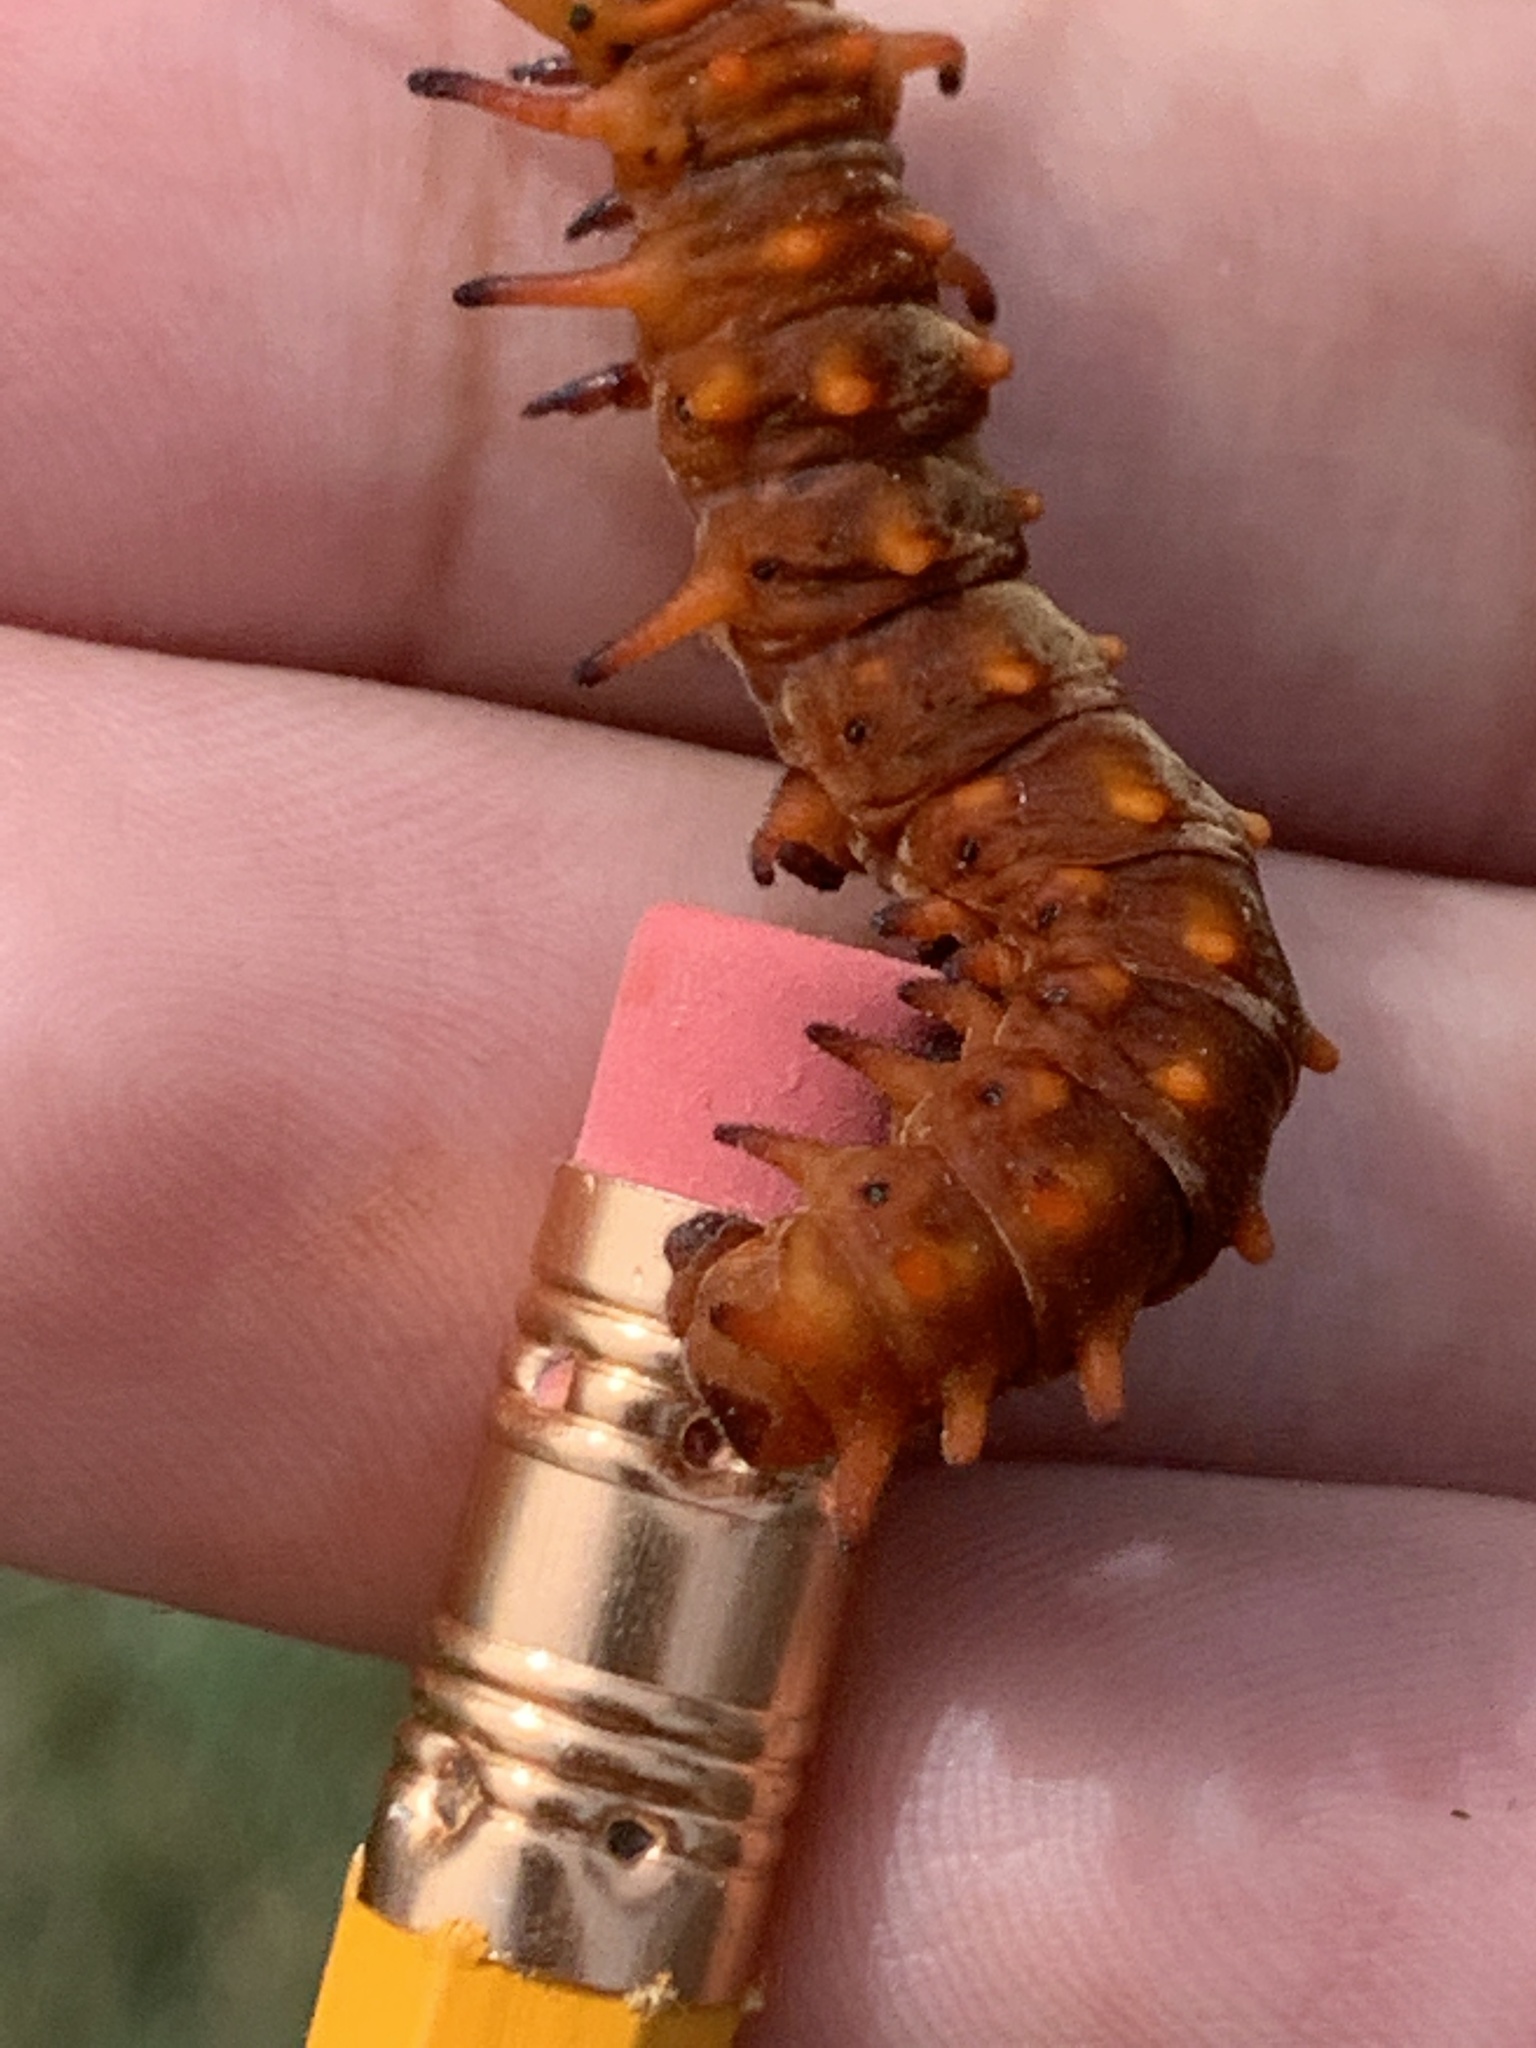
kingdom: Animalia
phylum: Arthropoda
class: Insecta
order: Lepidoptera
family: Papilionidae
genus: Battus
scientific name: Battus philenor
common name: Pipevine swallowtail
